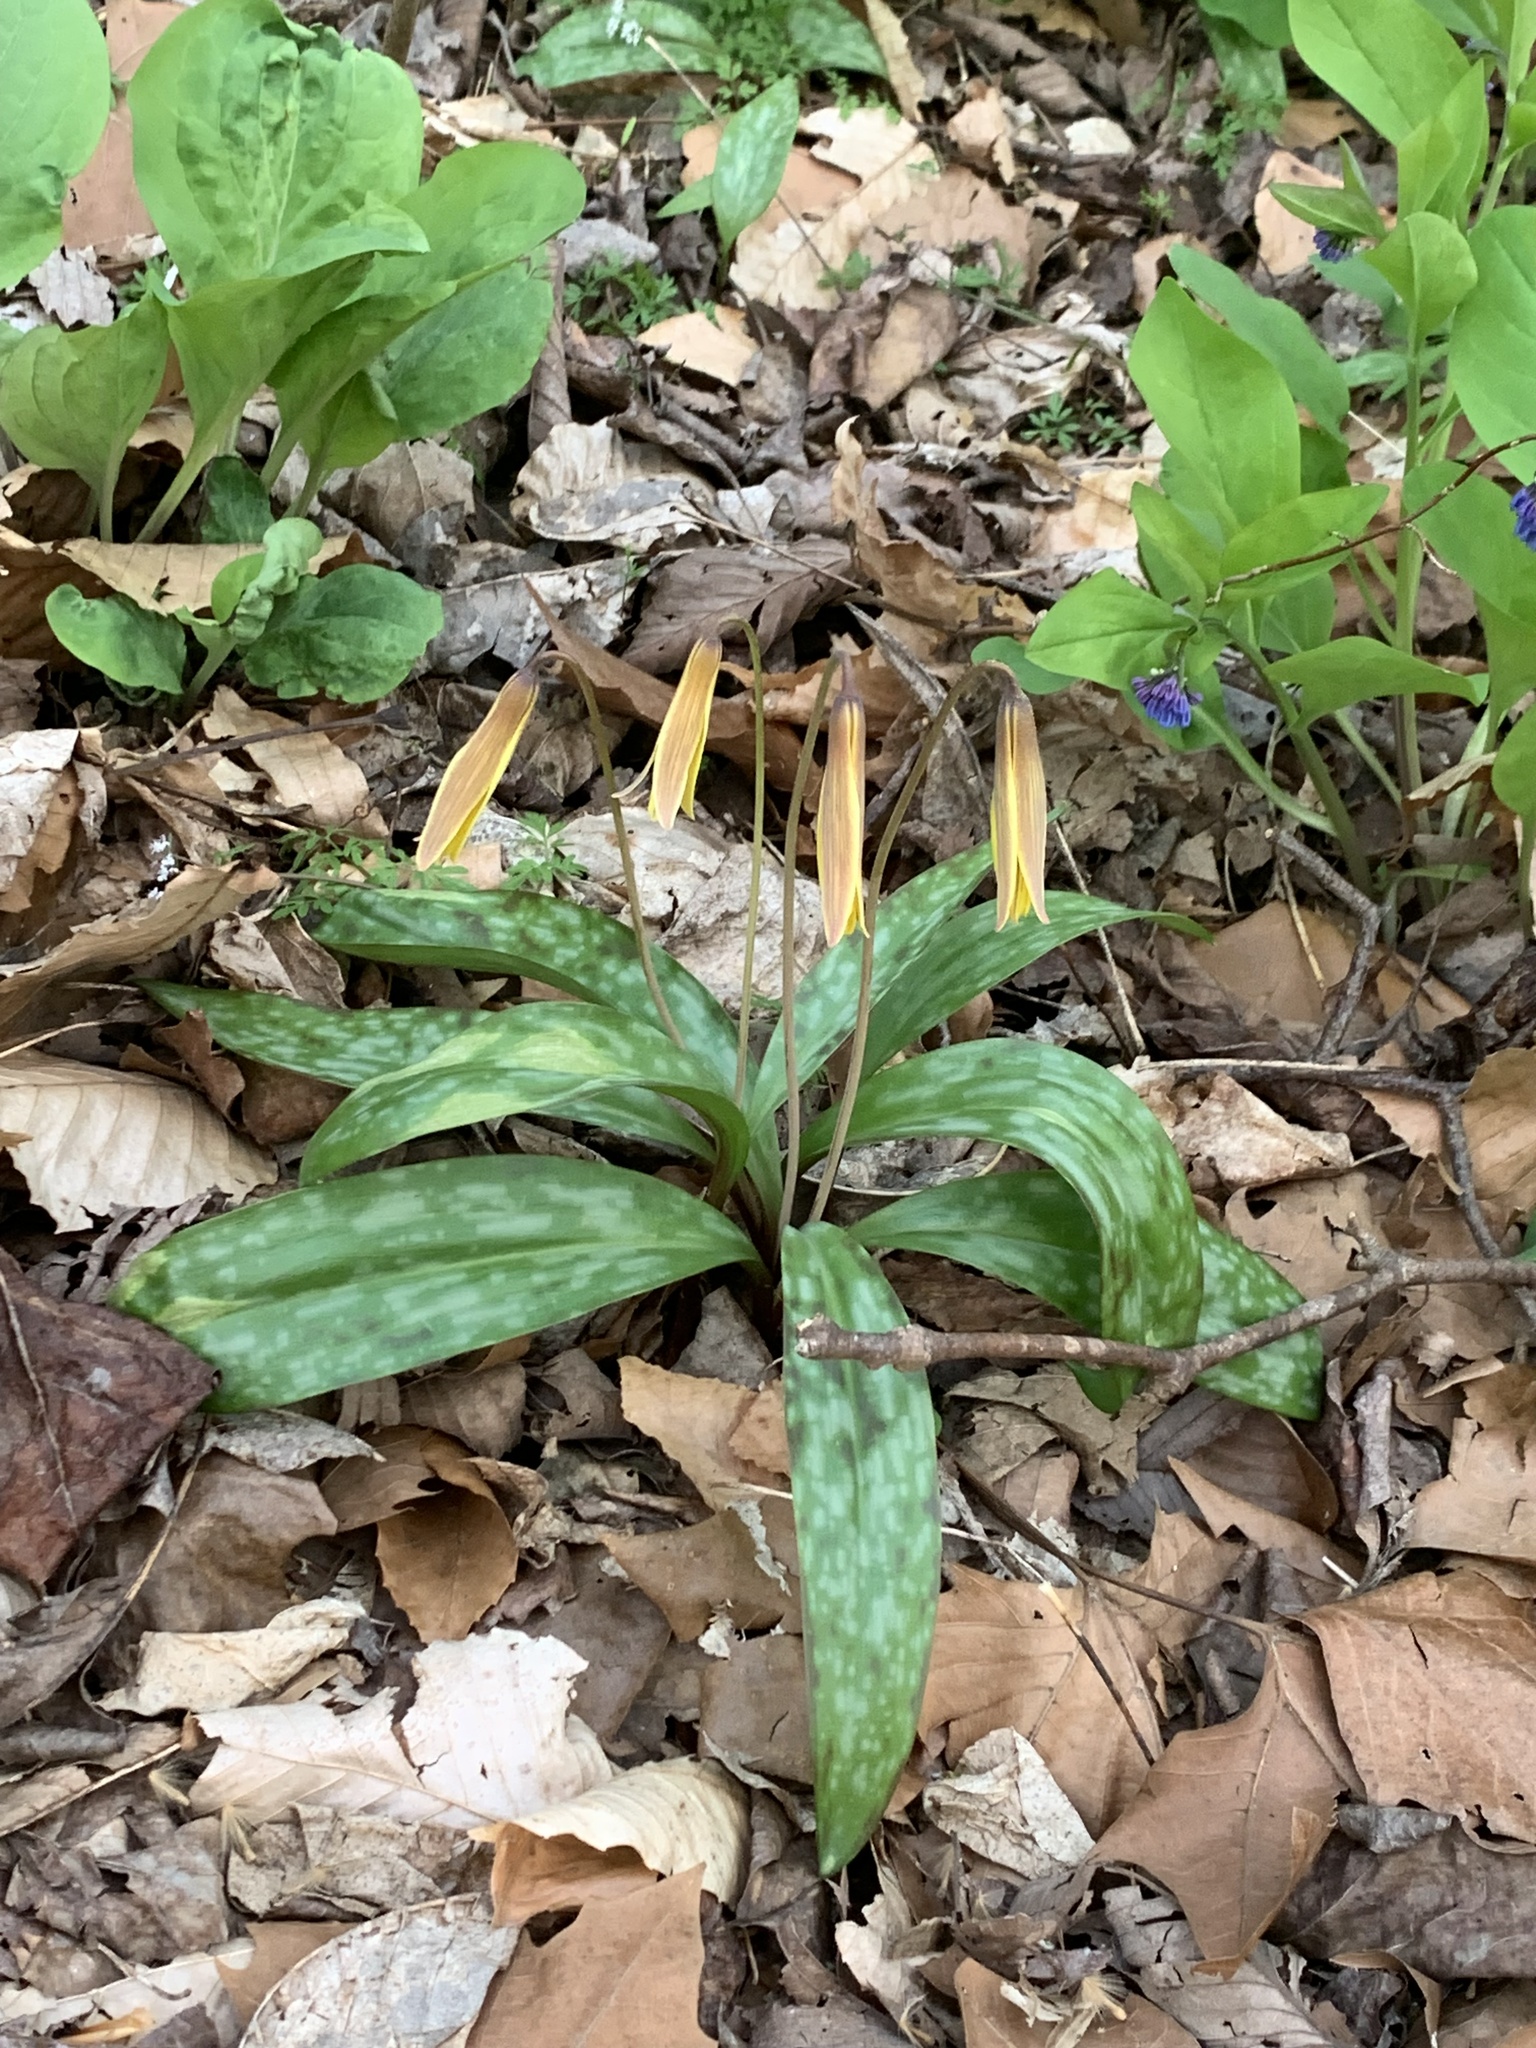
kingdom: Plantae
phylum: Tracheophyta
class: Liliopsida
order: Liliales
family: Liliaceae
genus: Erythronium
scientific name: Erythronium americanum
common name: Yellow adder's-tongue
